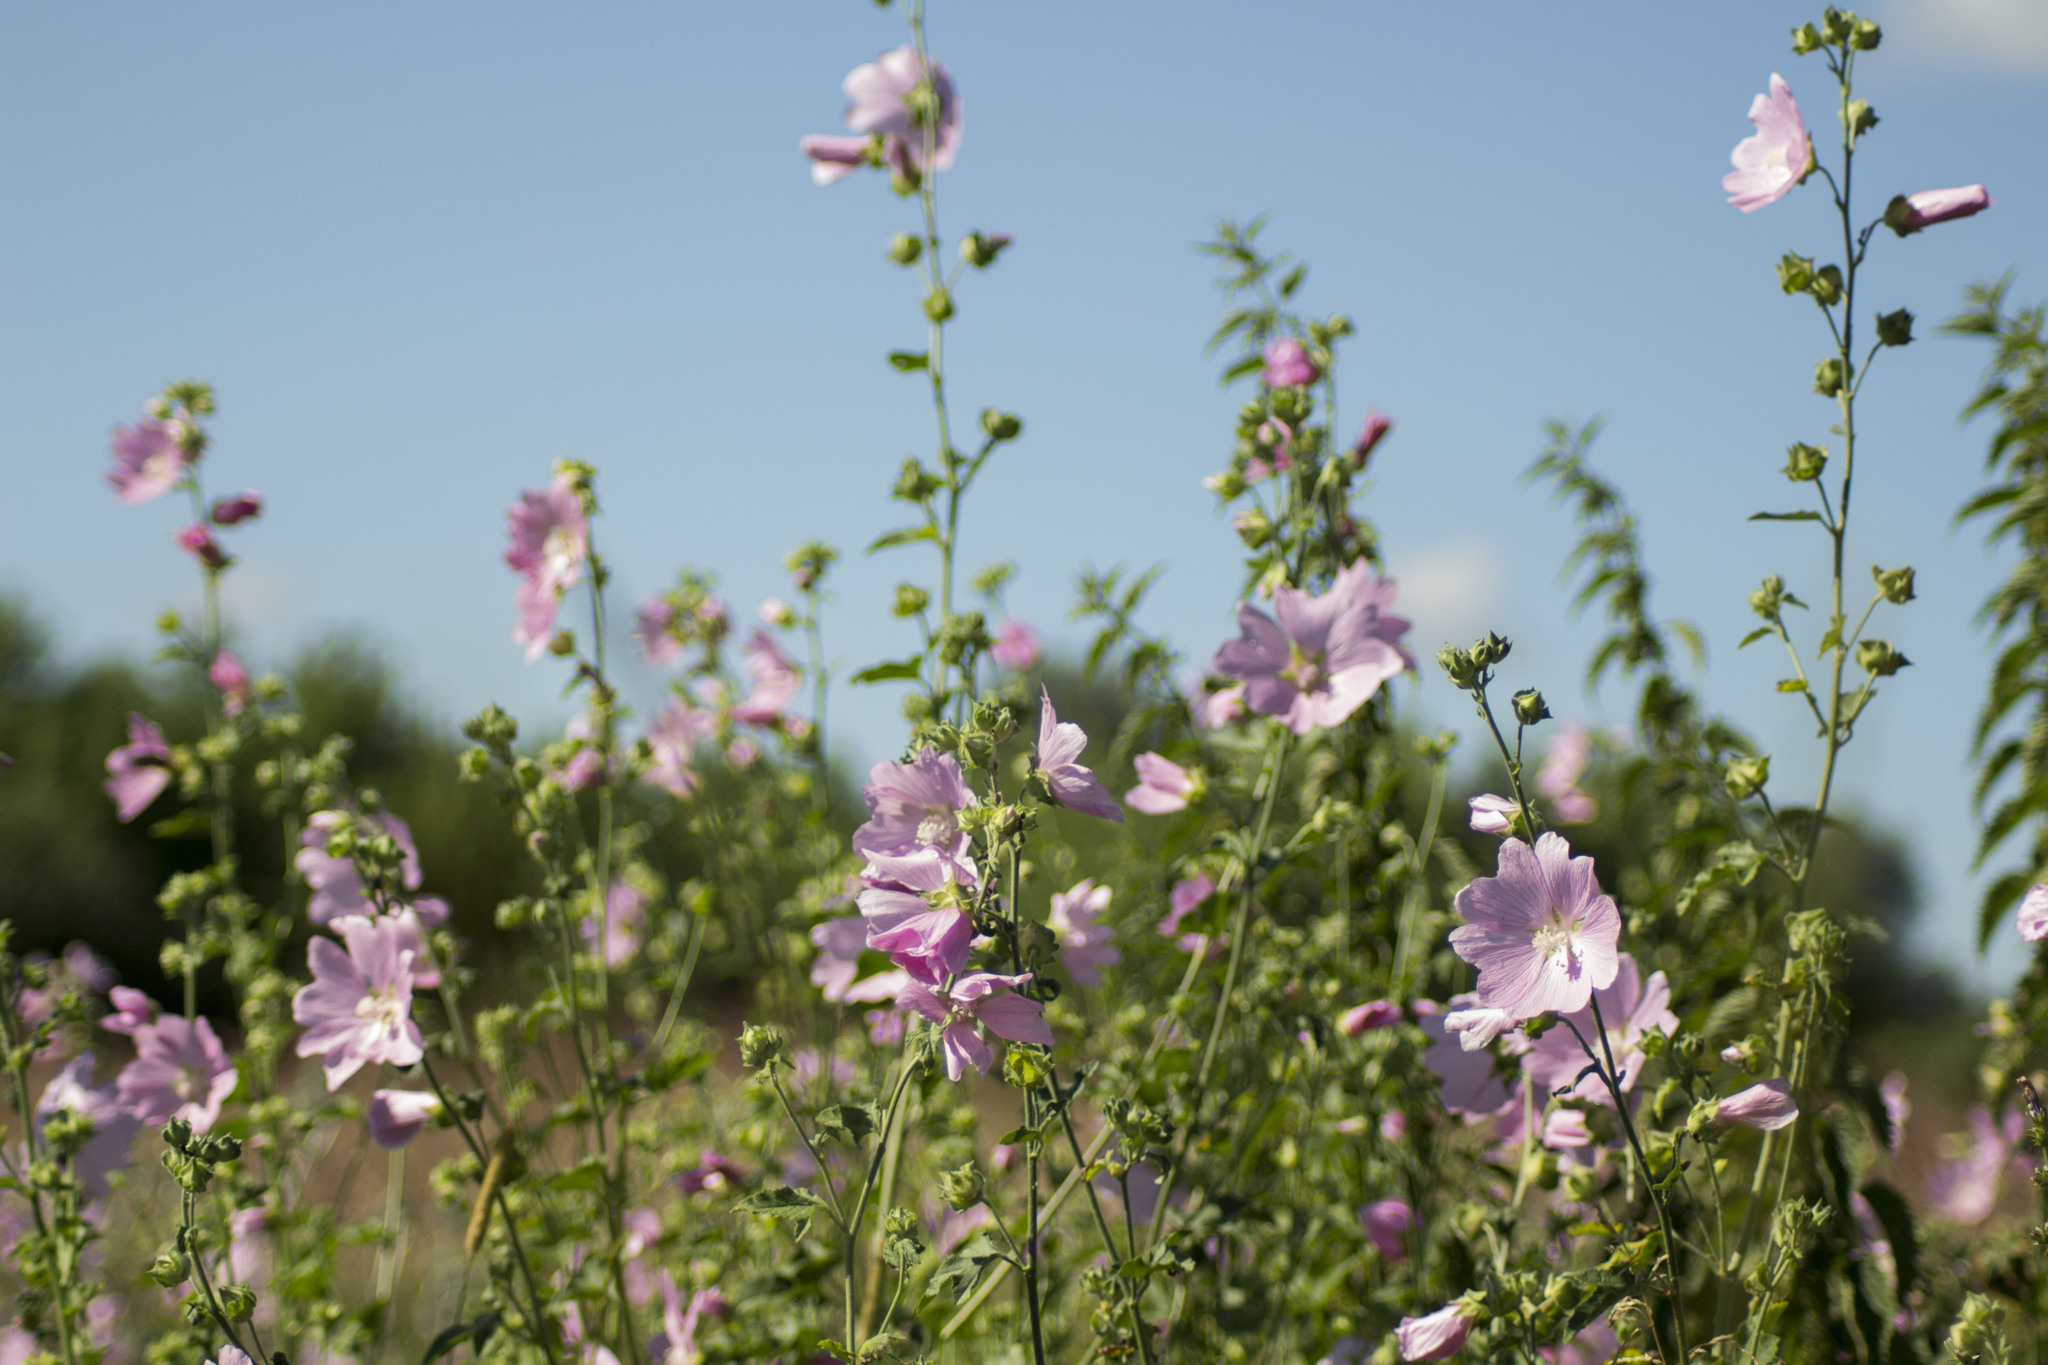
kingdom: Plantae
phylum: Tracheophyta
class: Magnoliopsida
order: Malvales
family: Malvaceae
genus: Malva
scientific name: Malva thuringiaca
